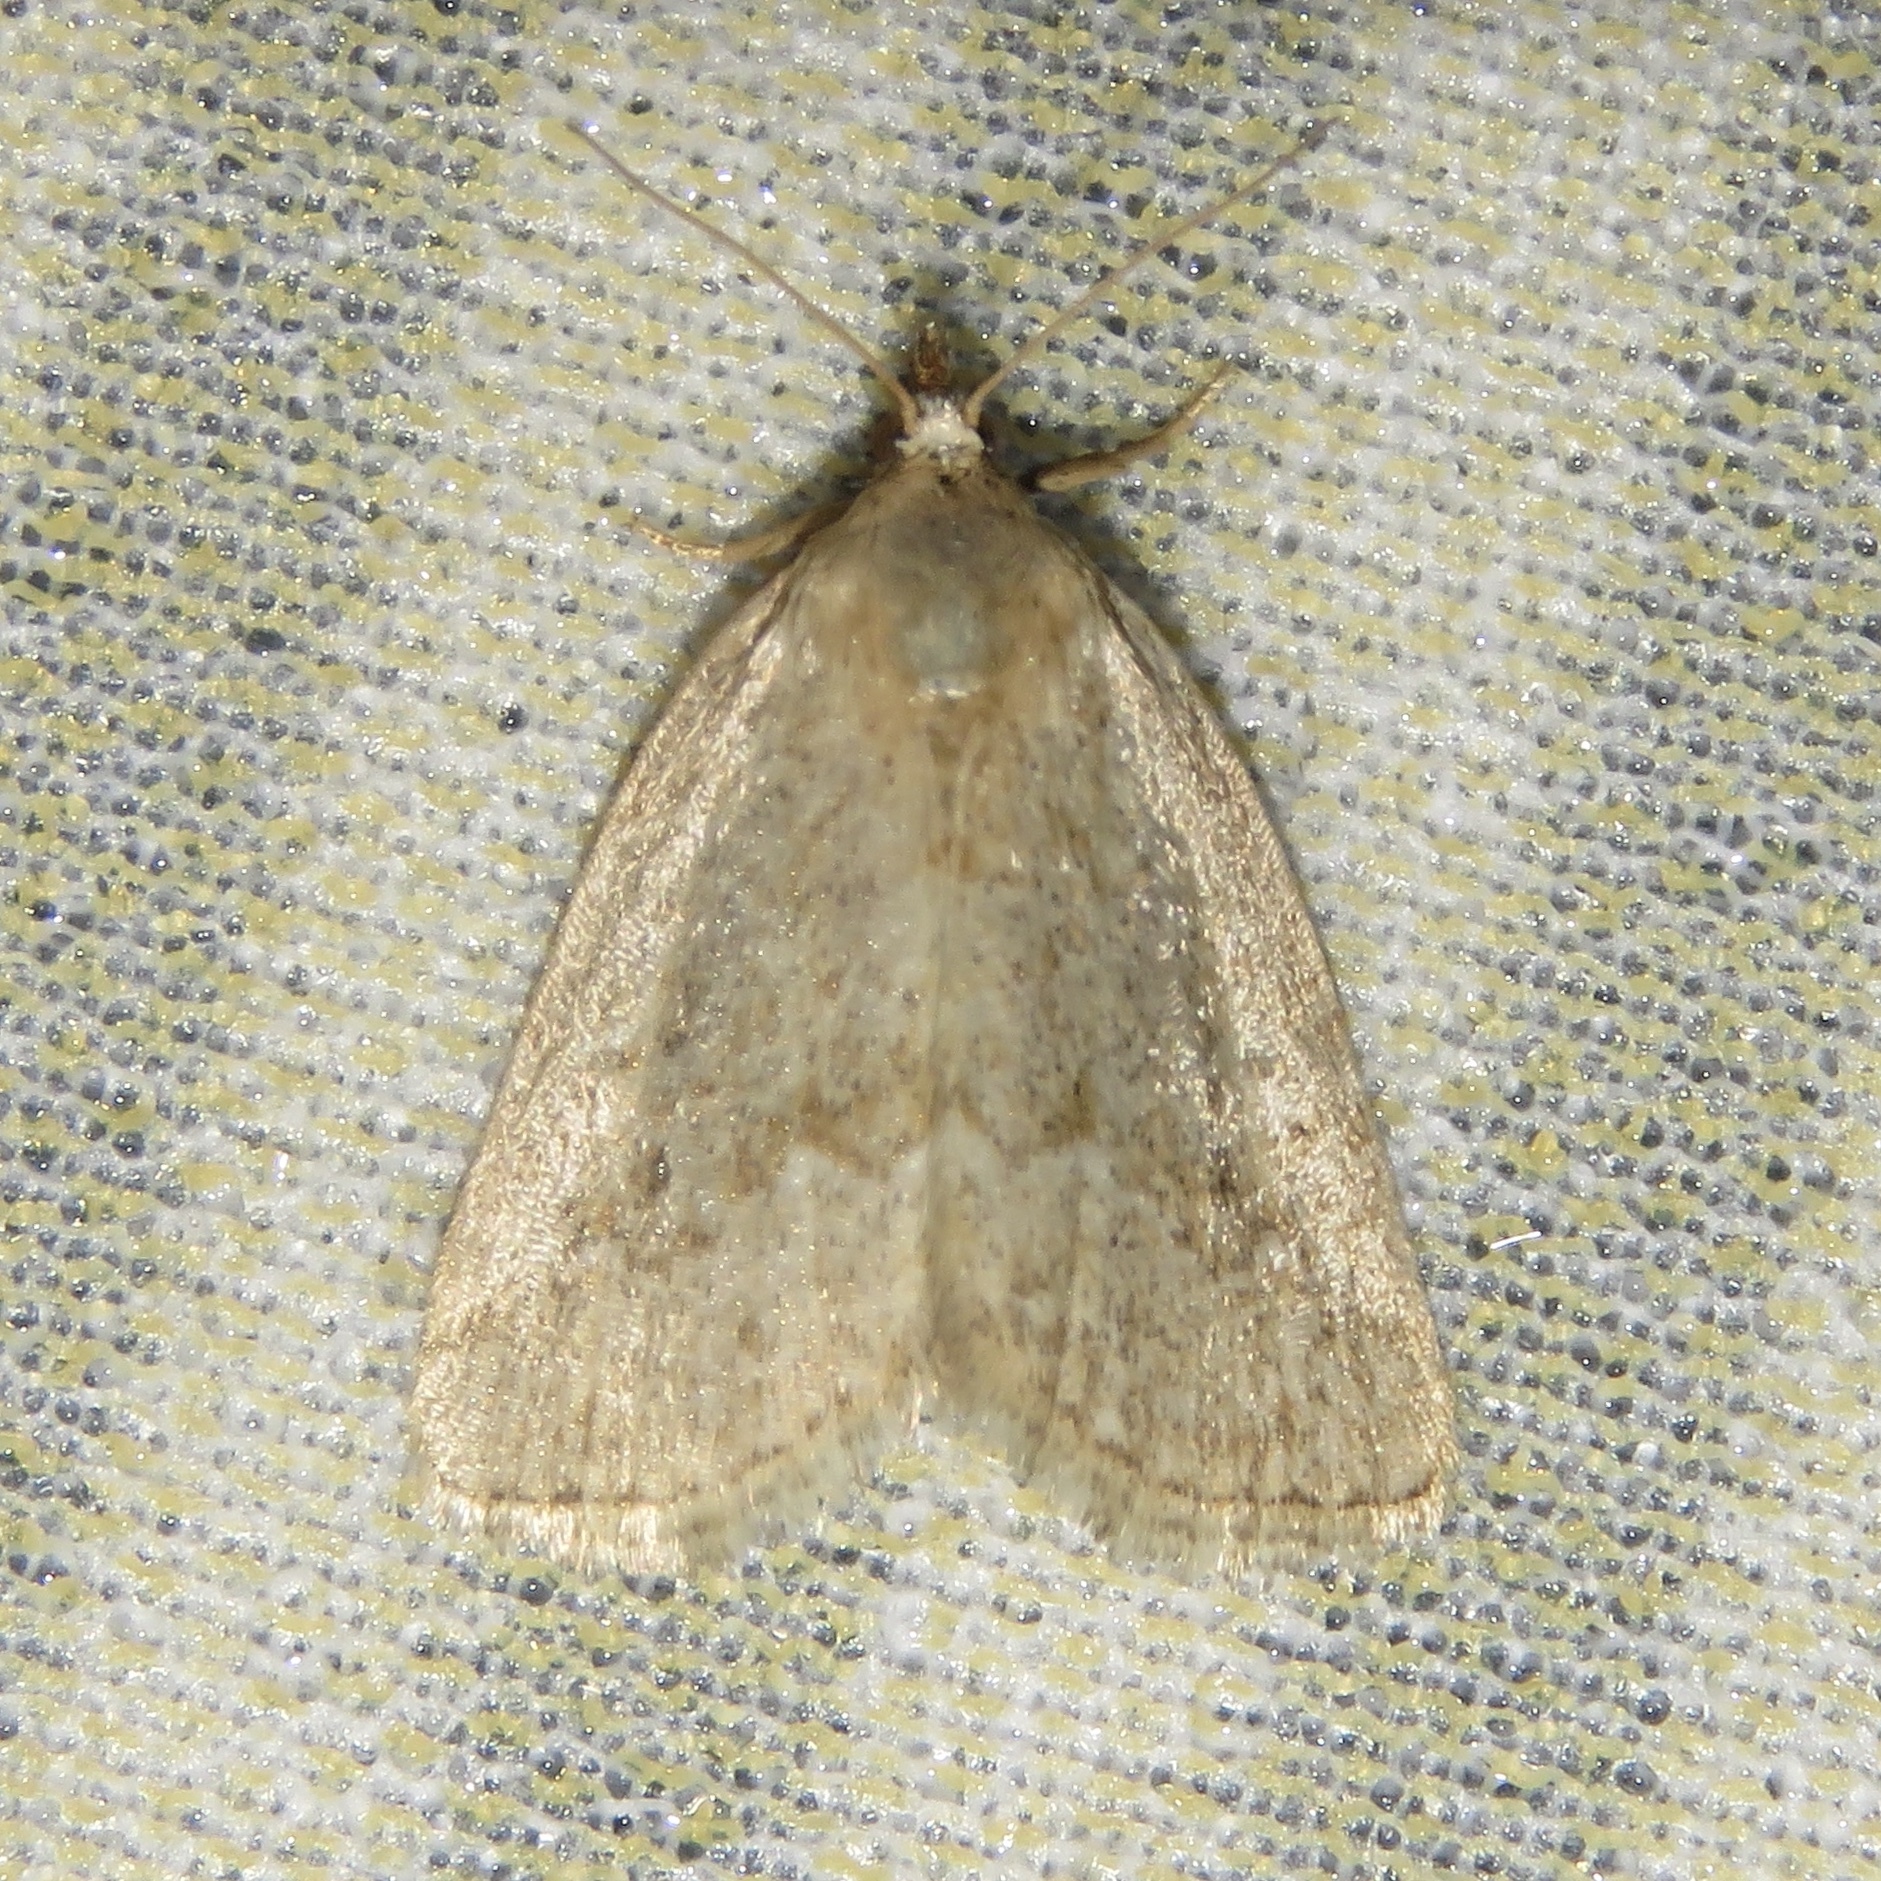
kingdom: Animalia
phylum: Arthropoda
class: Insecta
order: Lepidoptera
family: Noctuidae
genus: Protodeltote
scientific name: Protodeltote albidula
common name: Pale glyph
